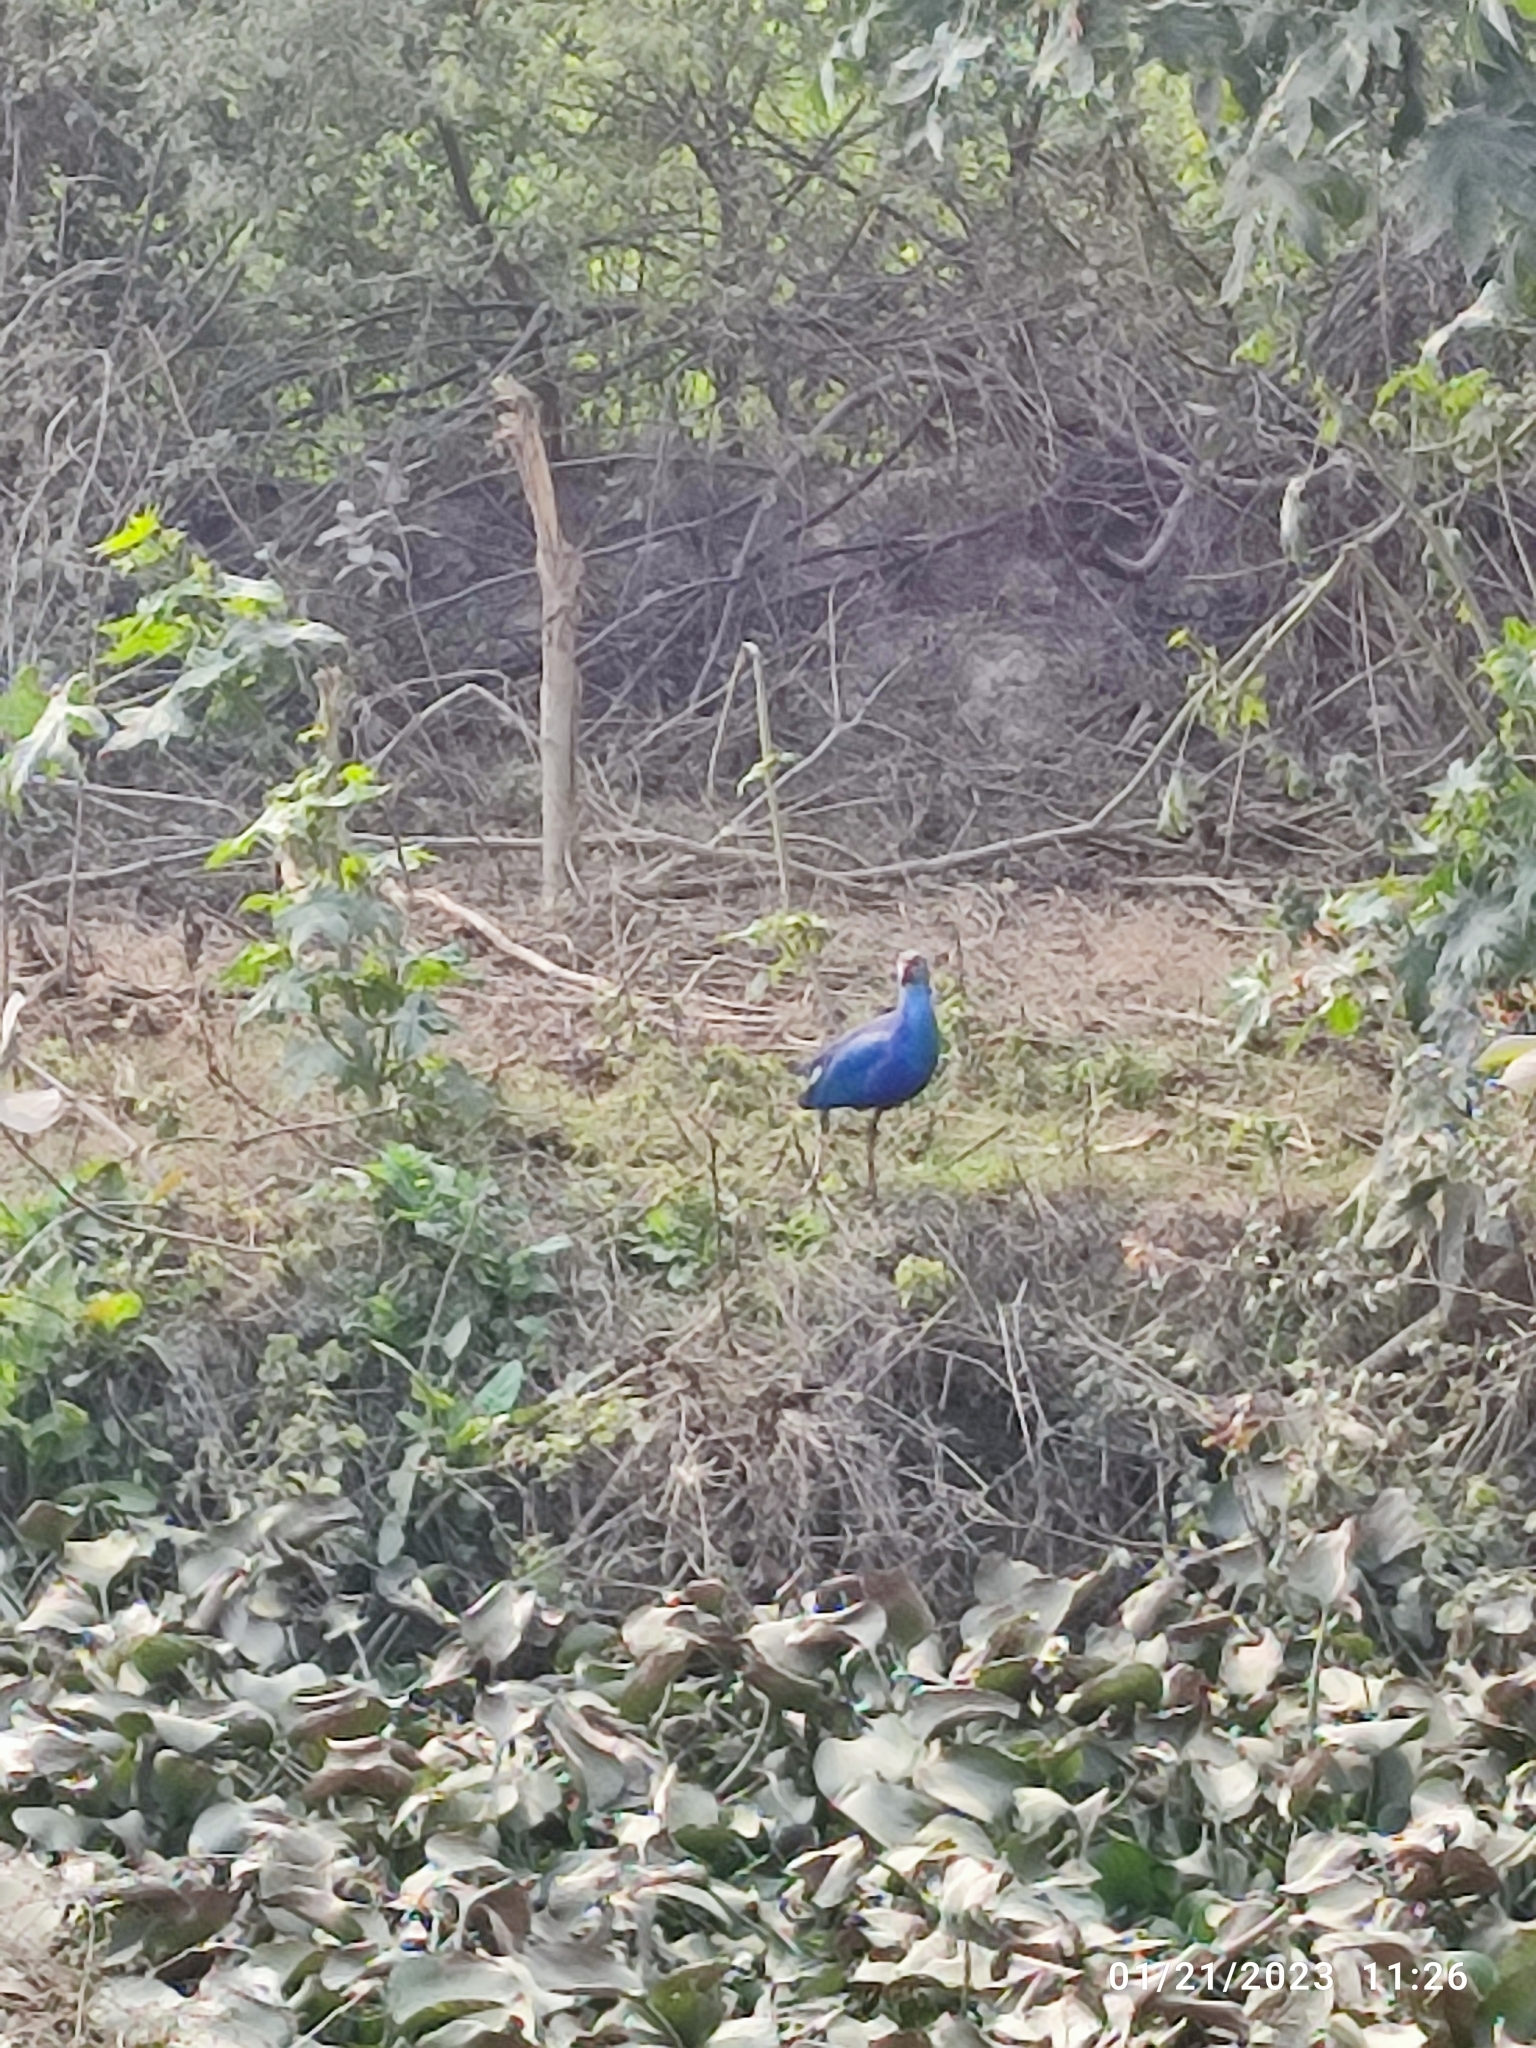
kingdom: Animalia
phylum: Chordata
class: Aves
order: Gruiformes
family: Rallidae
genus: Porphyrio
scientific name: Porphyrio porphyrio
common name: Purple swamphen
